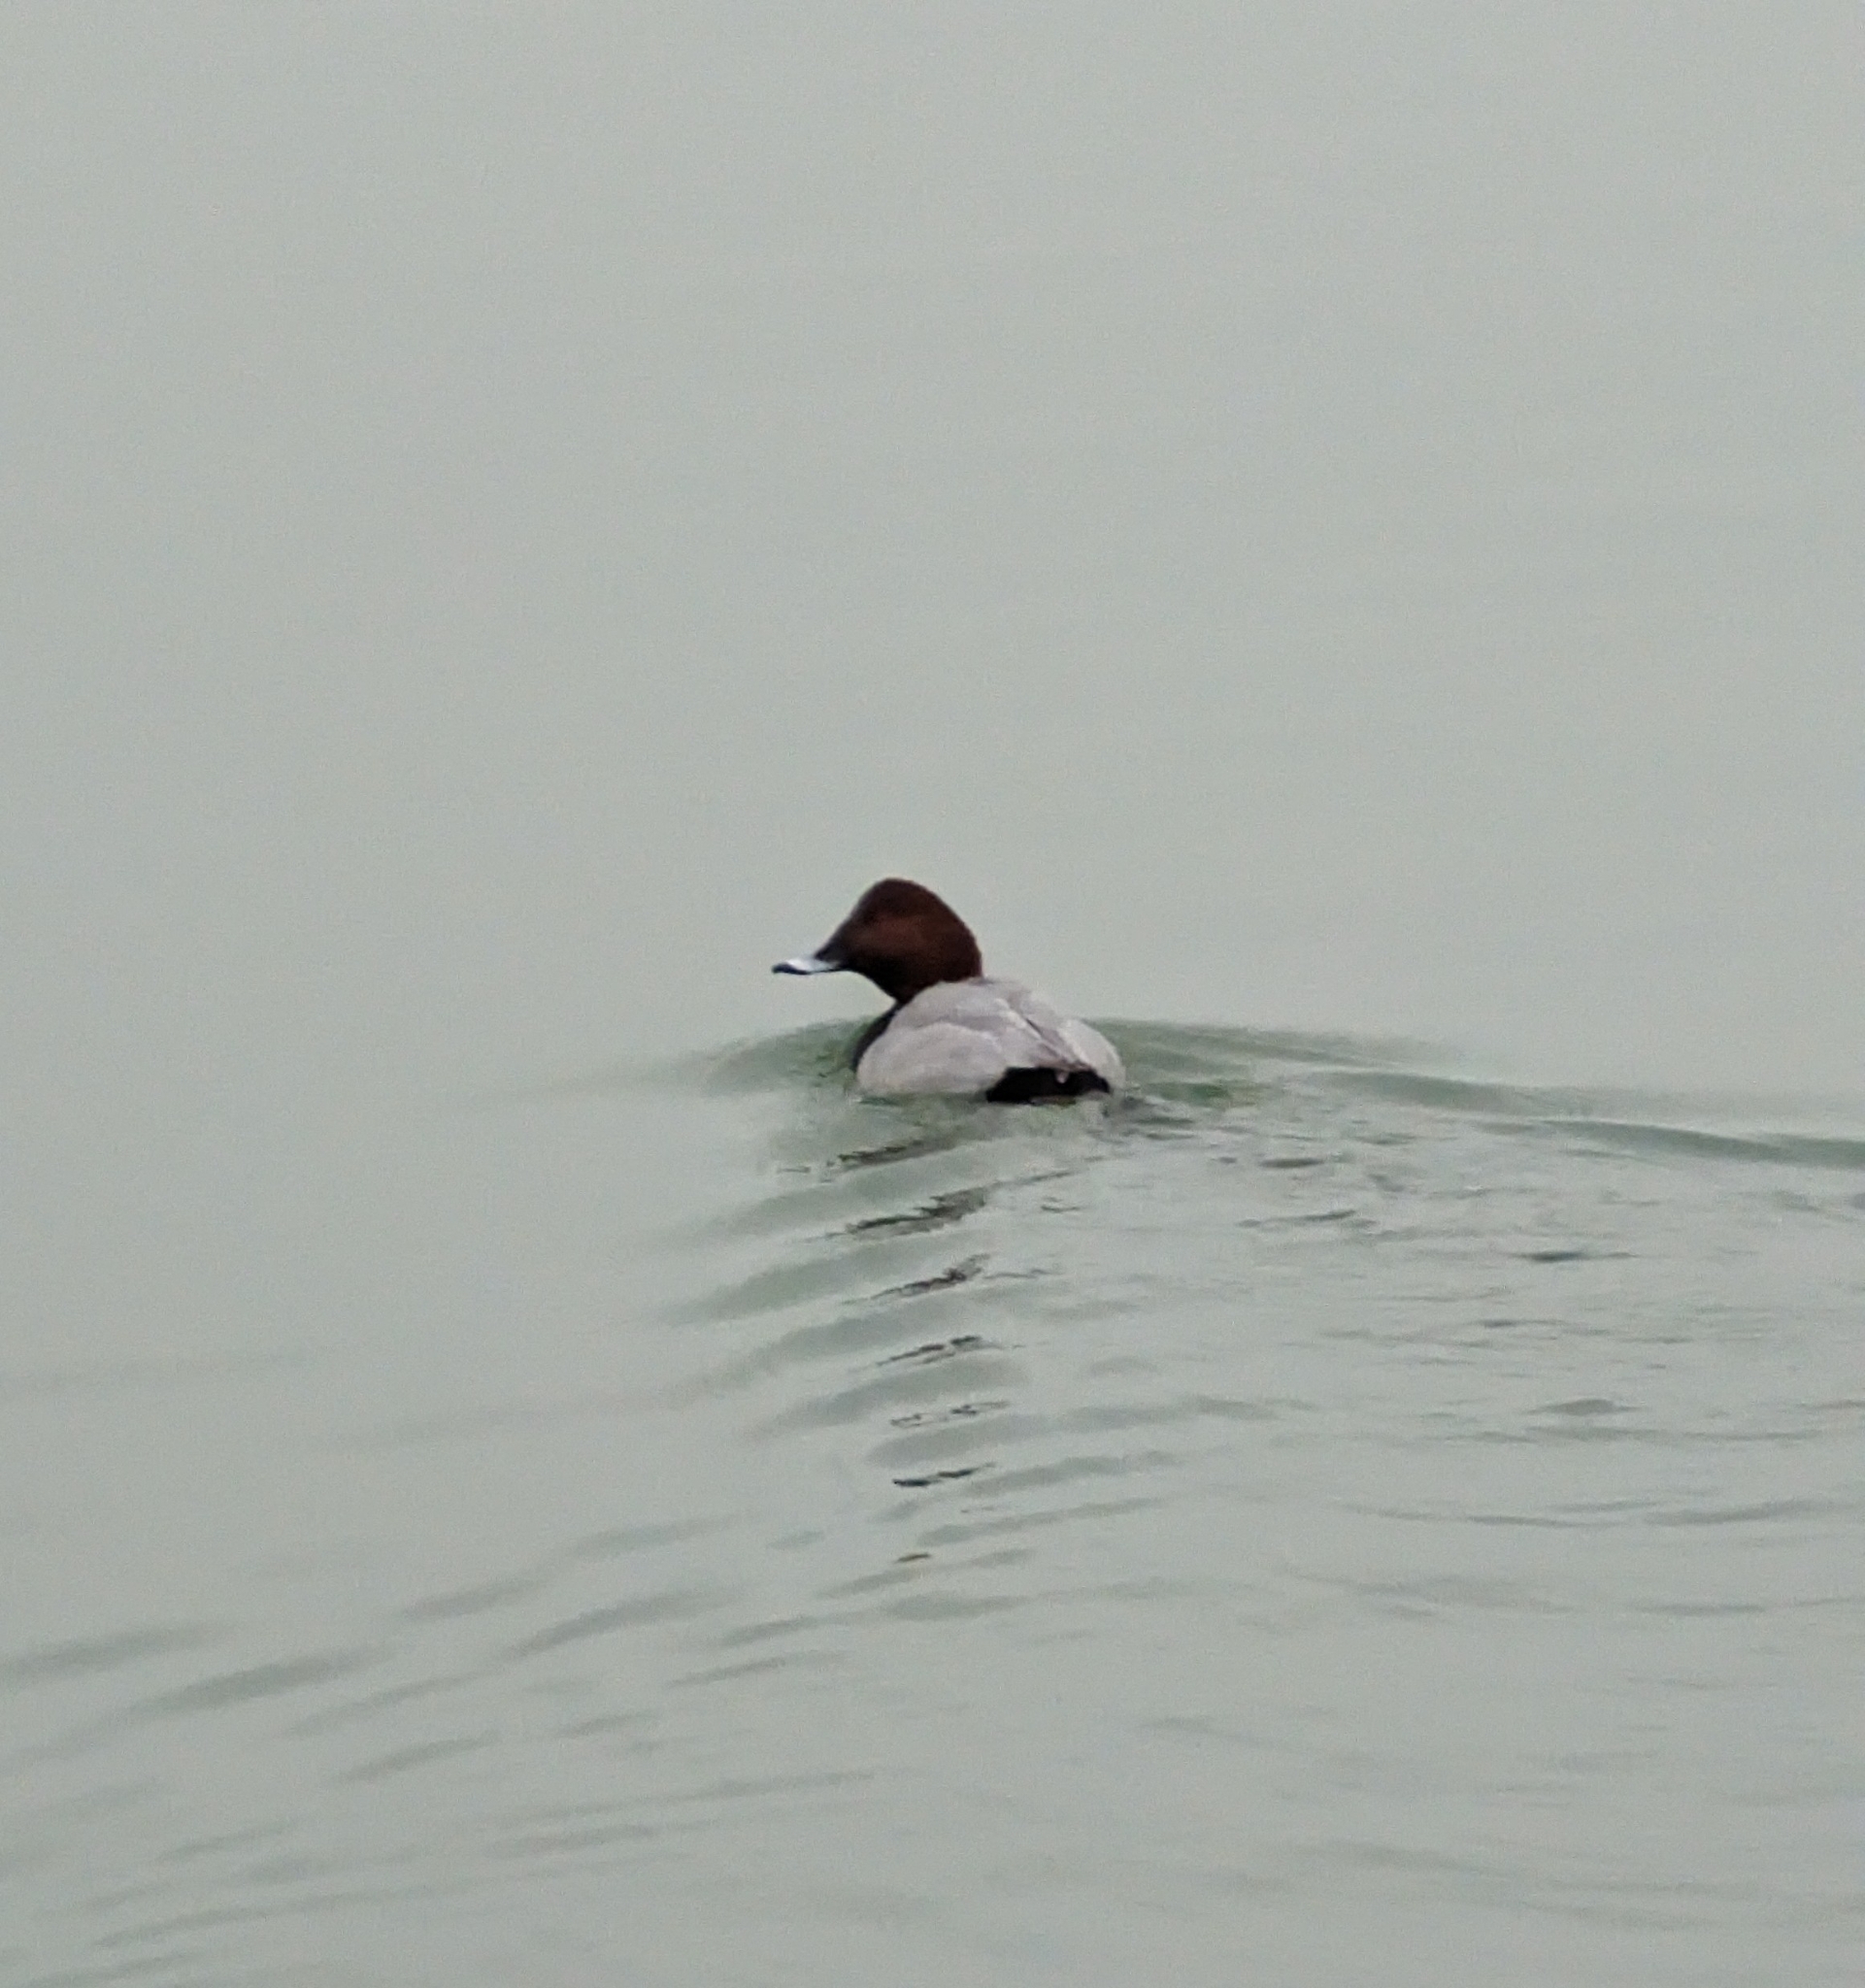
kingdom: Animalia
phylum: Chordata
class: Aves
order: Anseriformes
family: Anatidae
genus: Aythya
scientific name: Aythya ferina
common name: Common pochard
